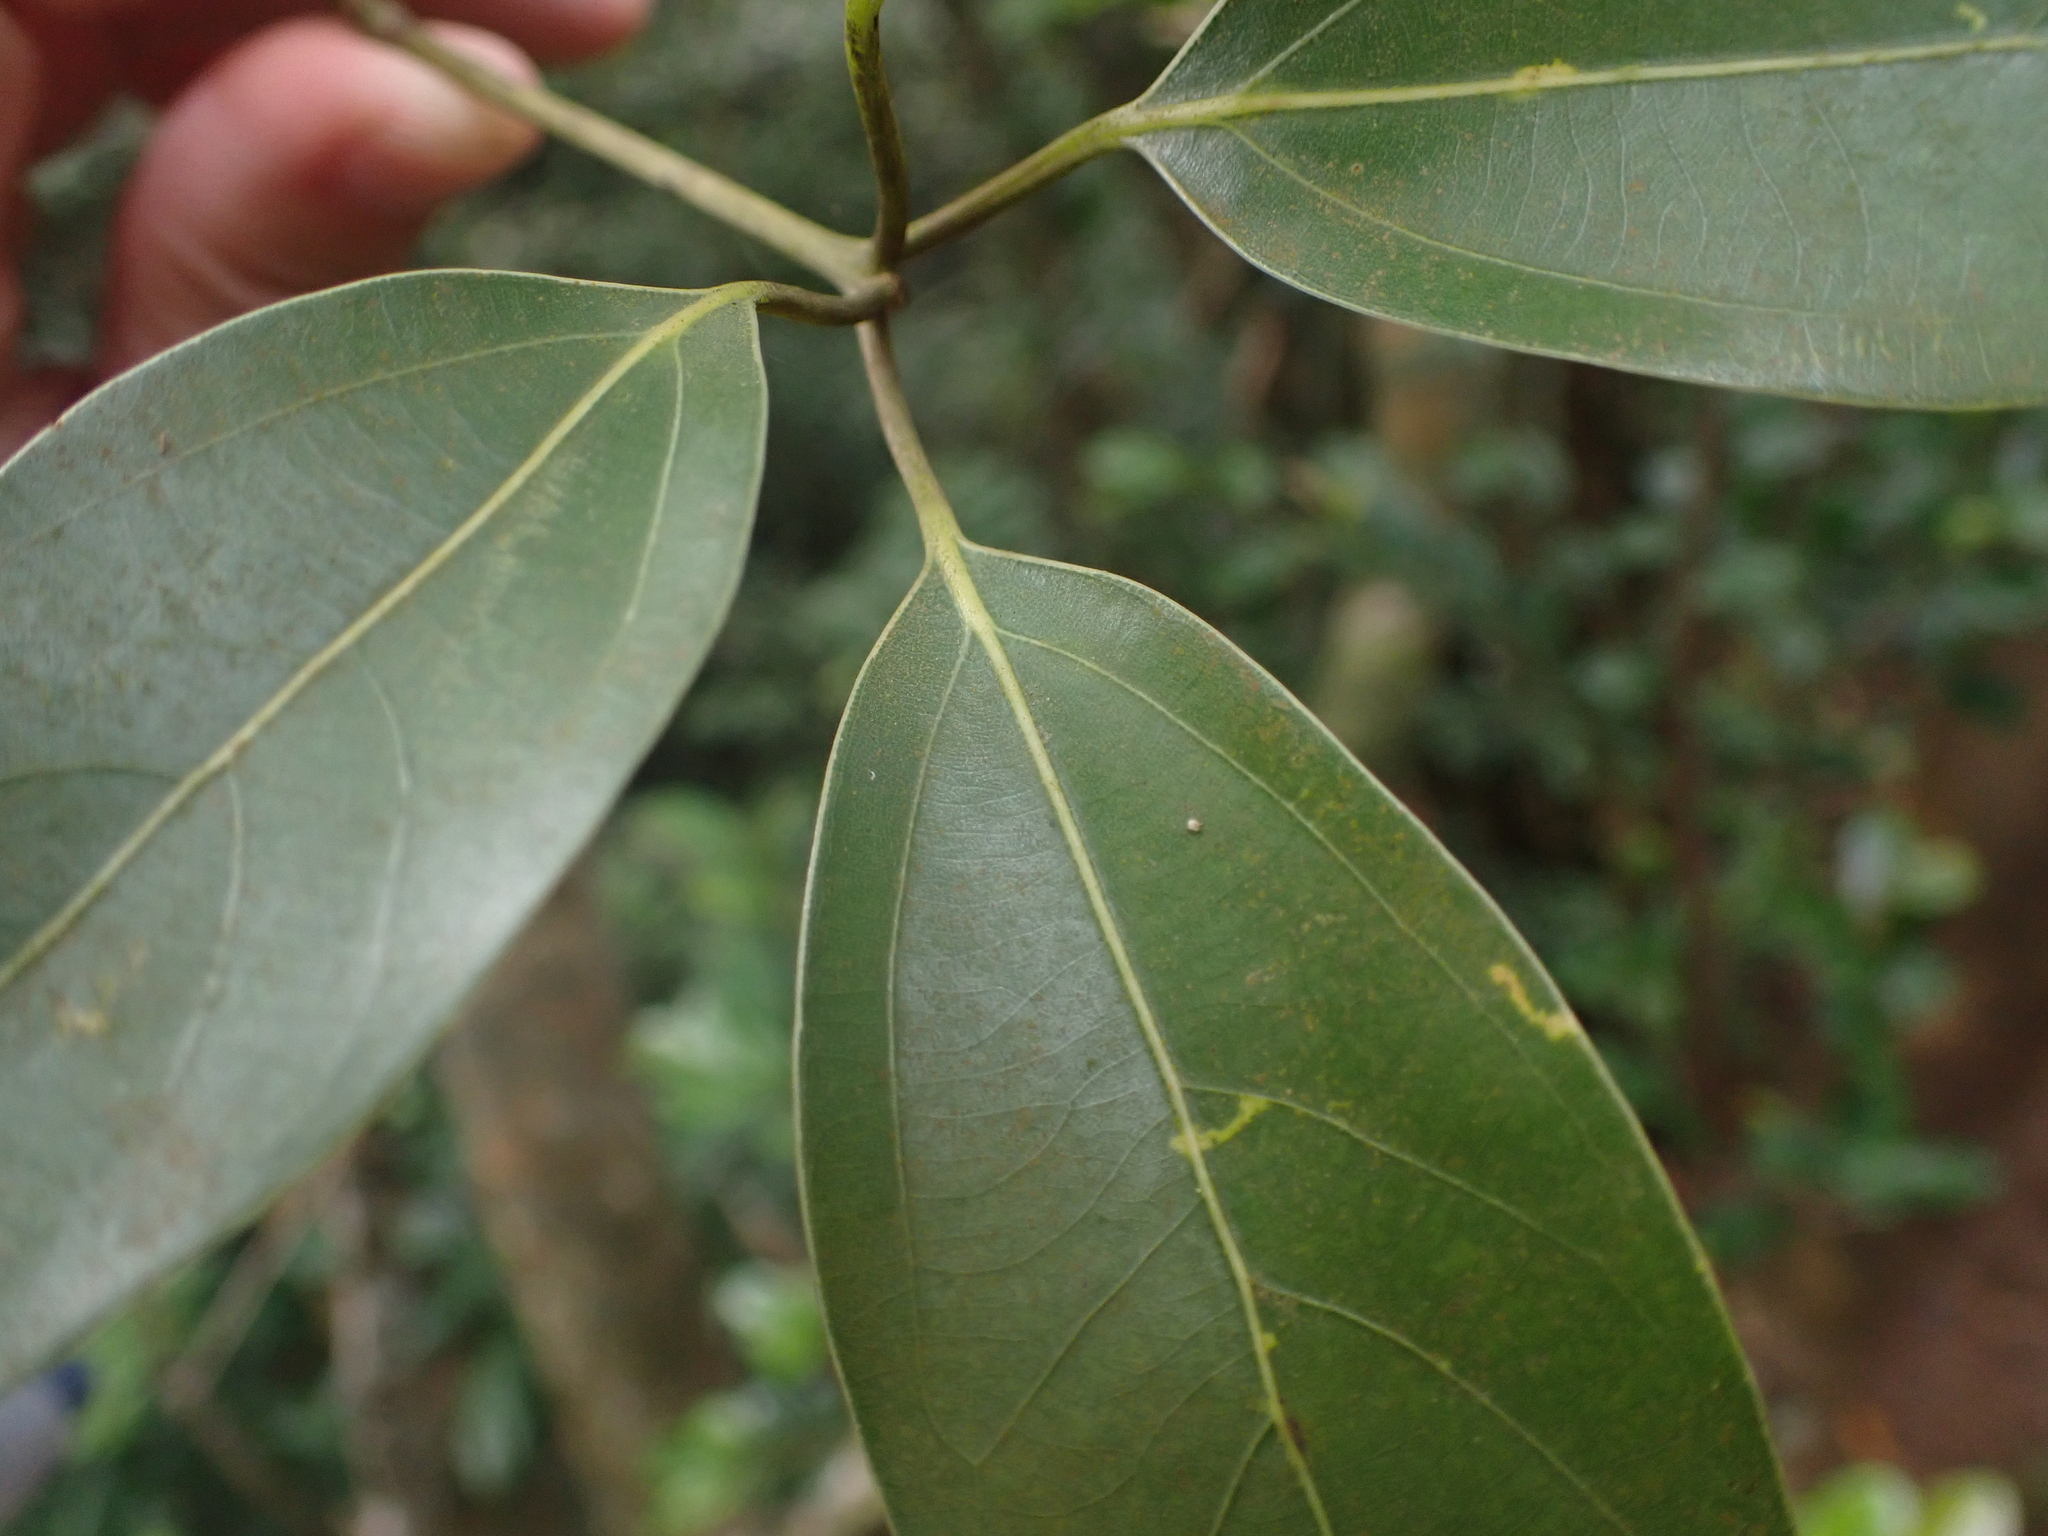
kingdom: Plantae
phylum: Tracheophyta
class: Magnoliopsida
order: Laurales
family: Lauraceae
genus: Neolitsea
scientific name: Neolitsea sericea
